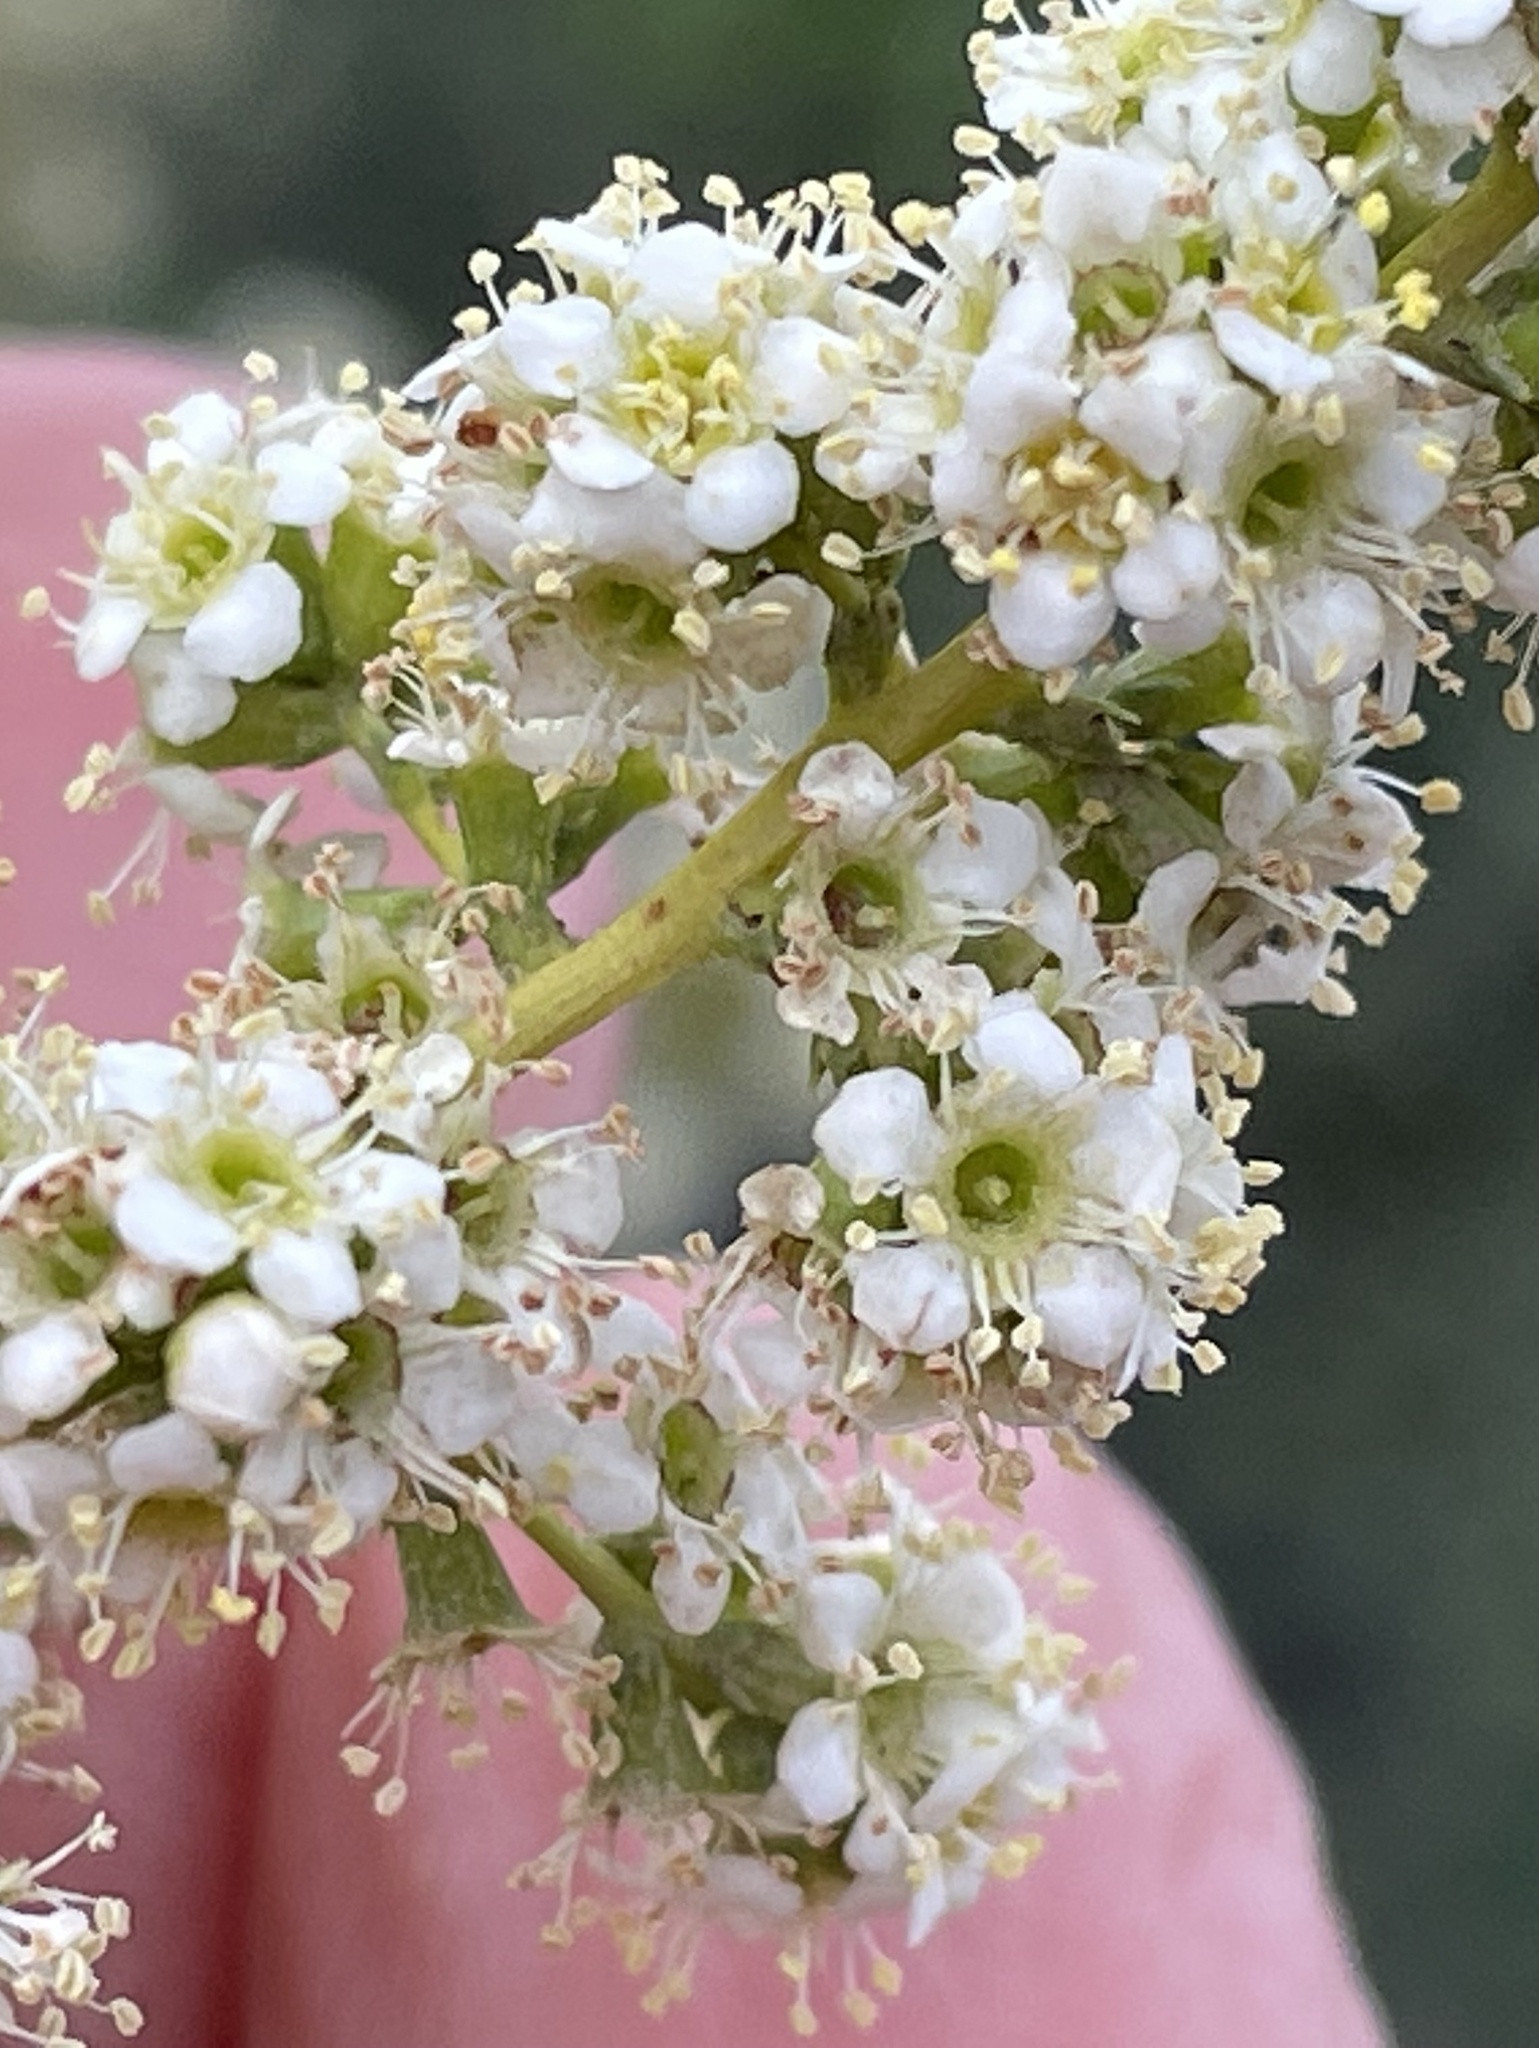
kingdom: Plantae
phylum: Tracheophyta
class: Magnoliopsida
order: Rosales
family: Rosaceae
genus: Adenostoma
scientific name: Adenostoma fasciculatum
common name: Chamise
